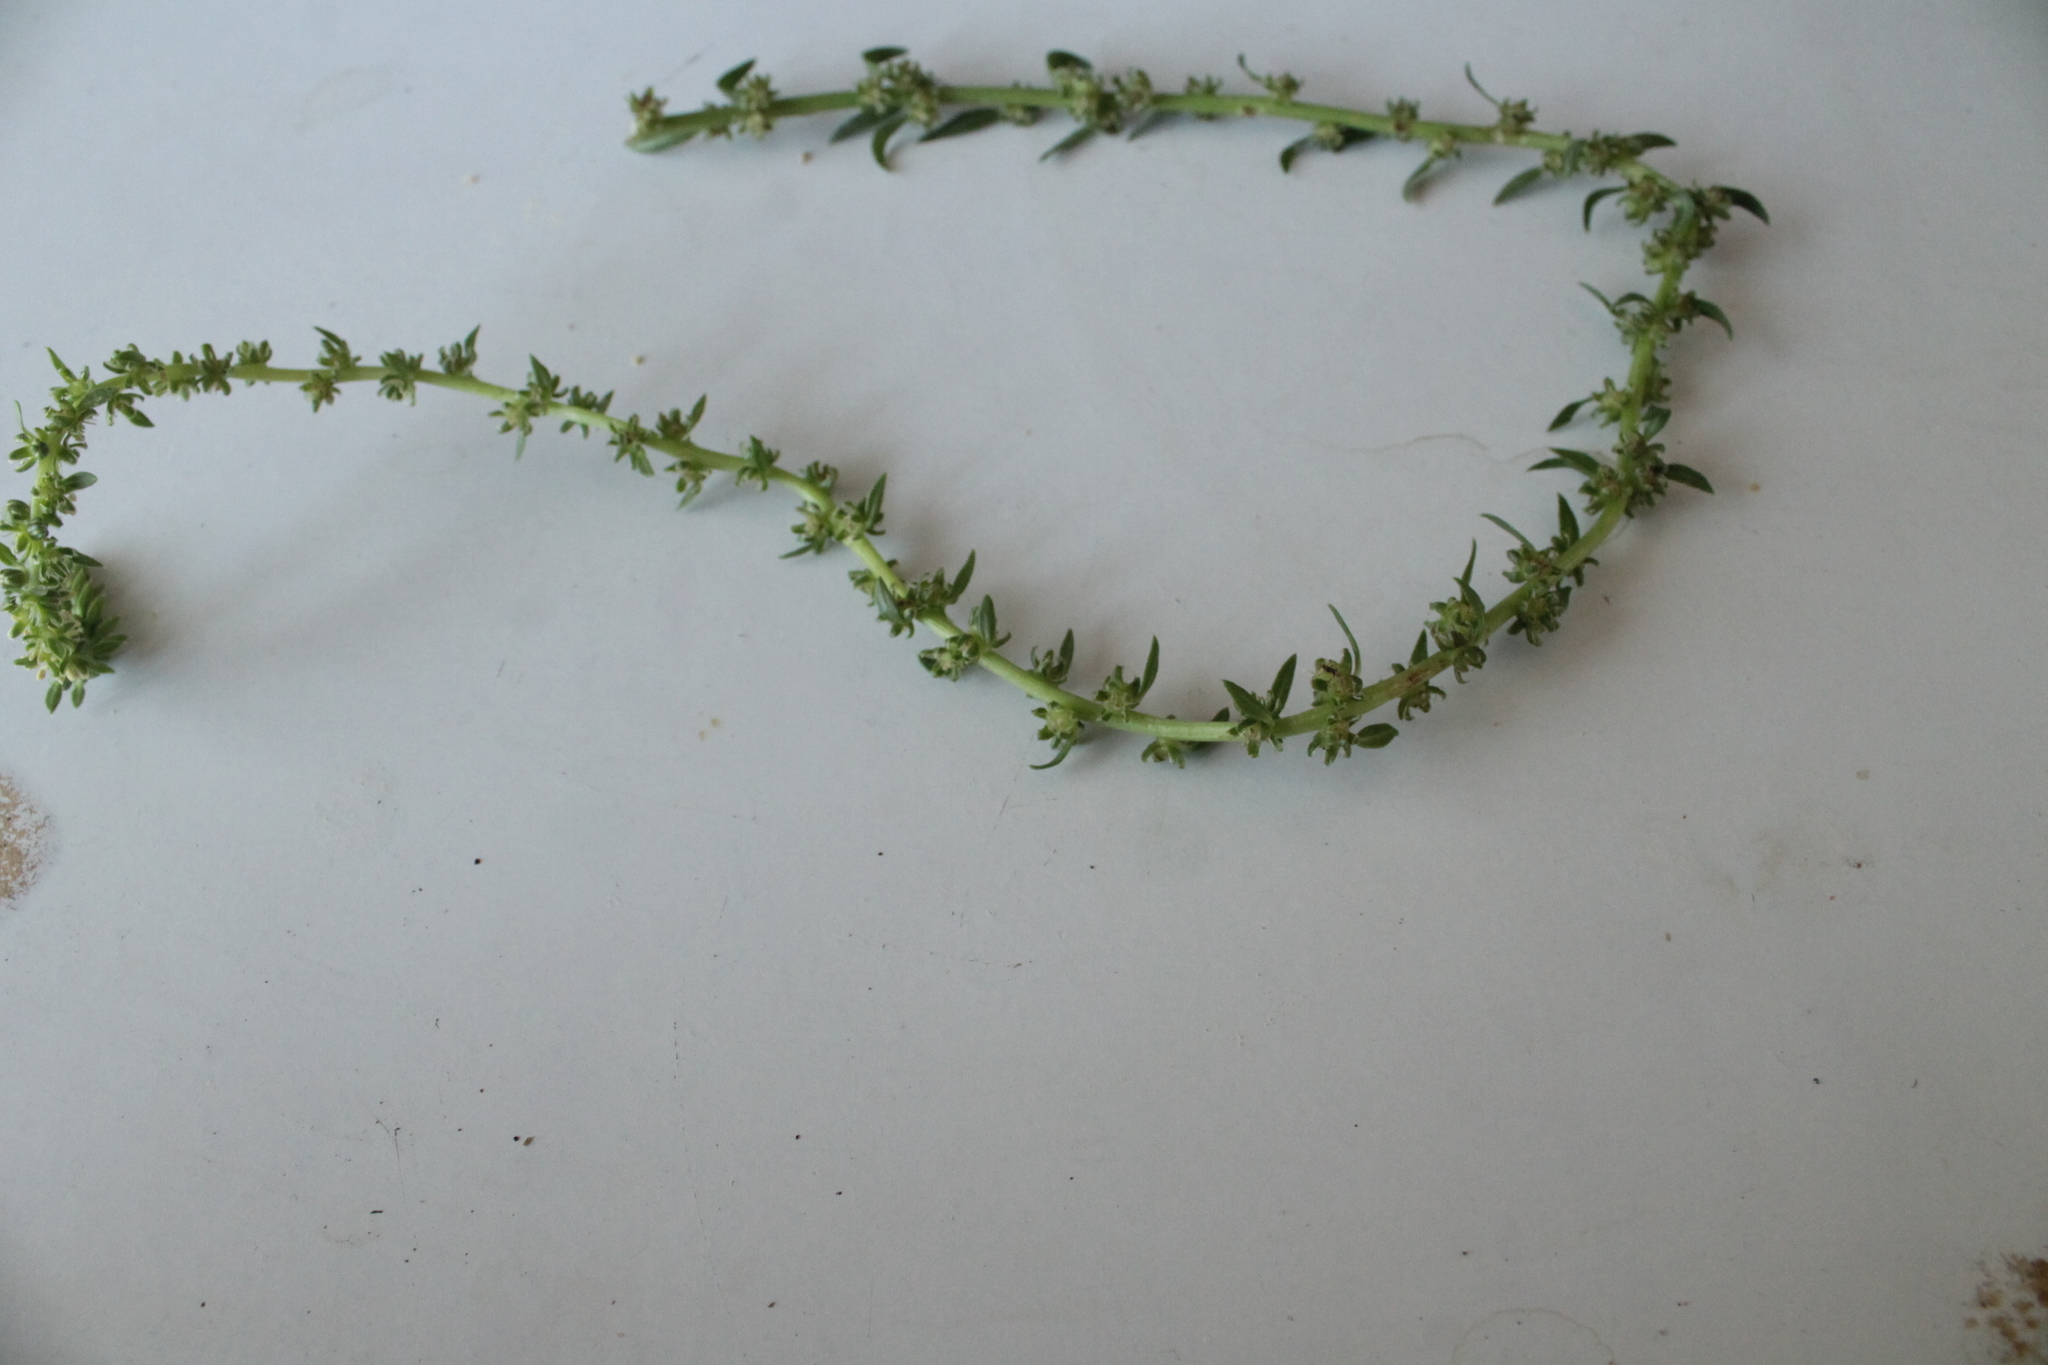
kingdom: Plantae
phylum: Tracheophyta
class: Magnoliopsida
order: Caryophyllales
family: Amaranthaceae
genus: Beta
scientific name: Beta vulgaris
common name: Beet
